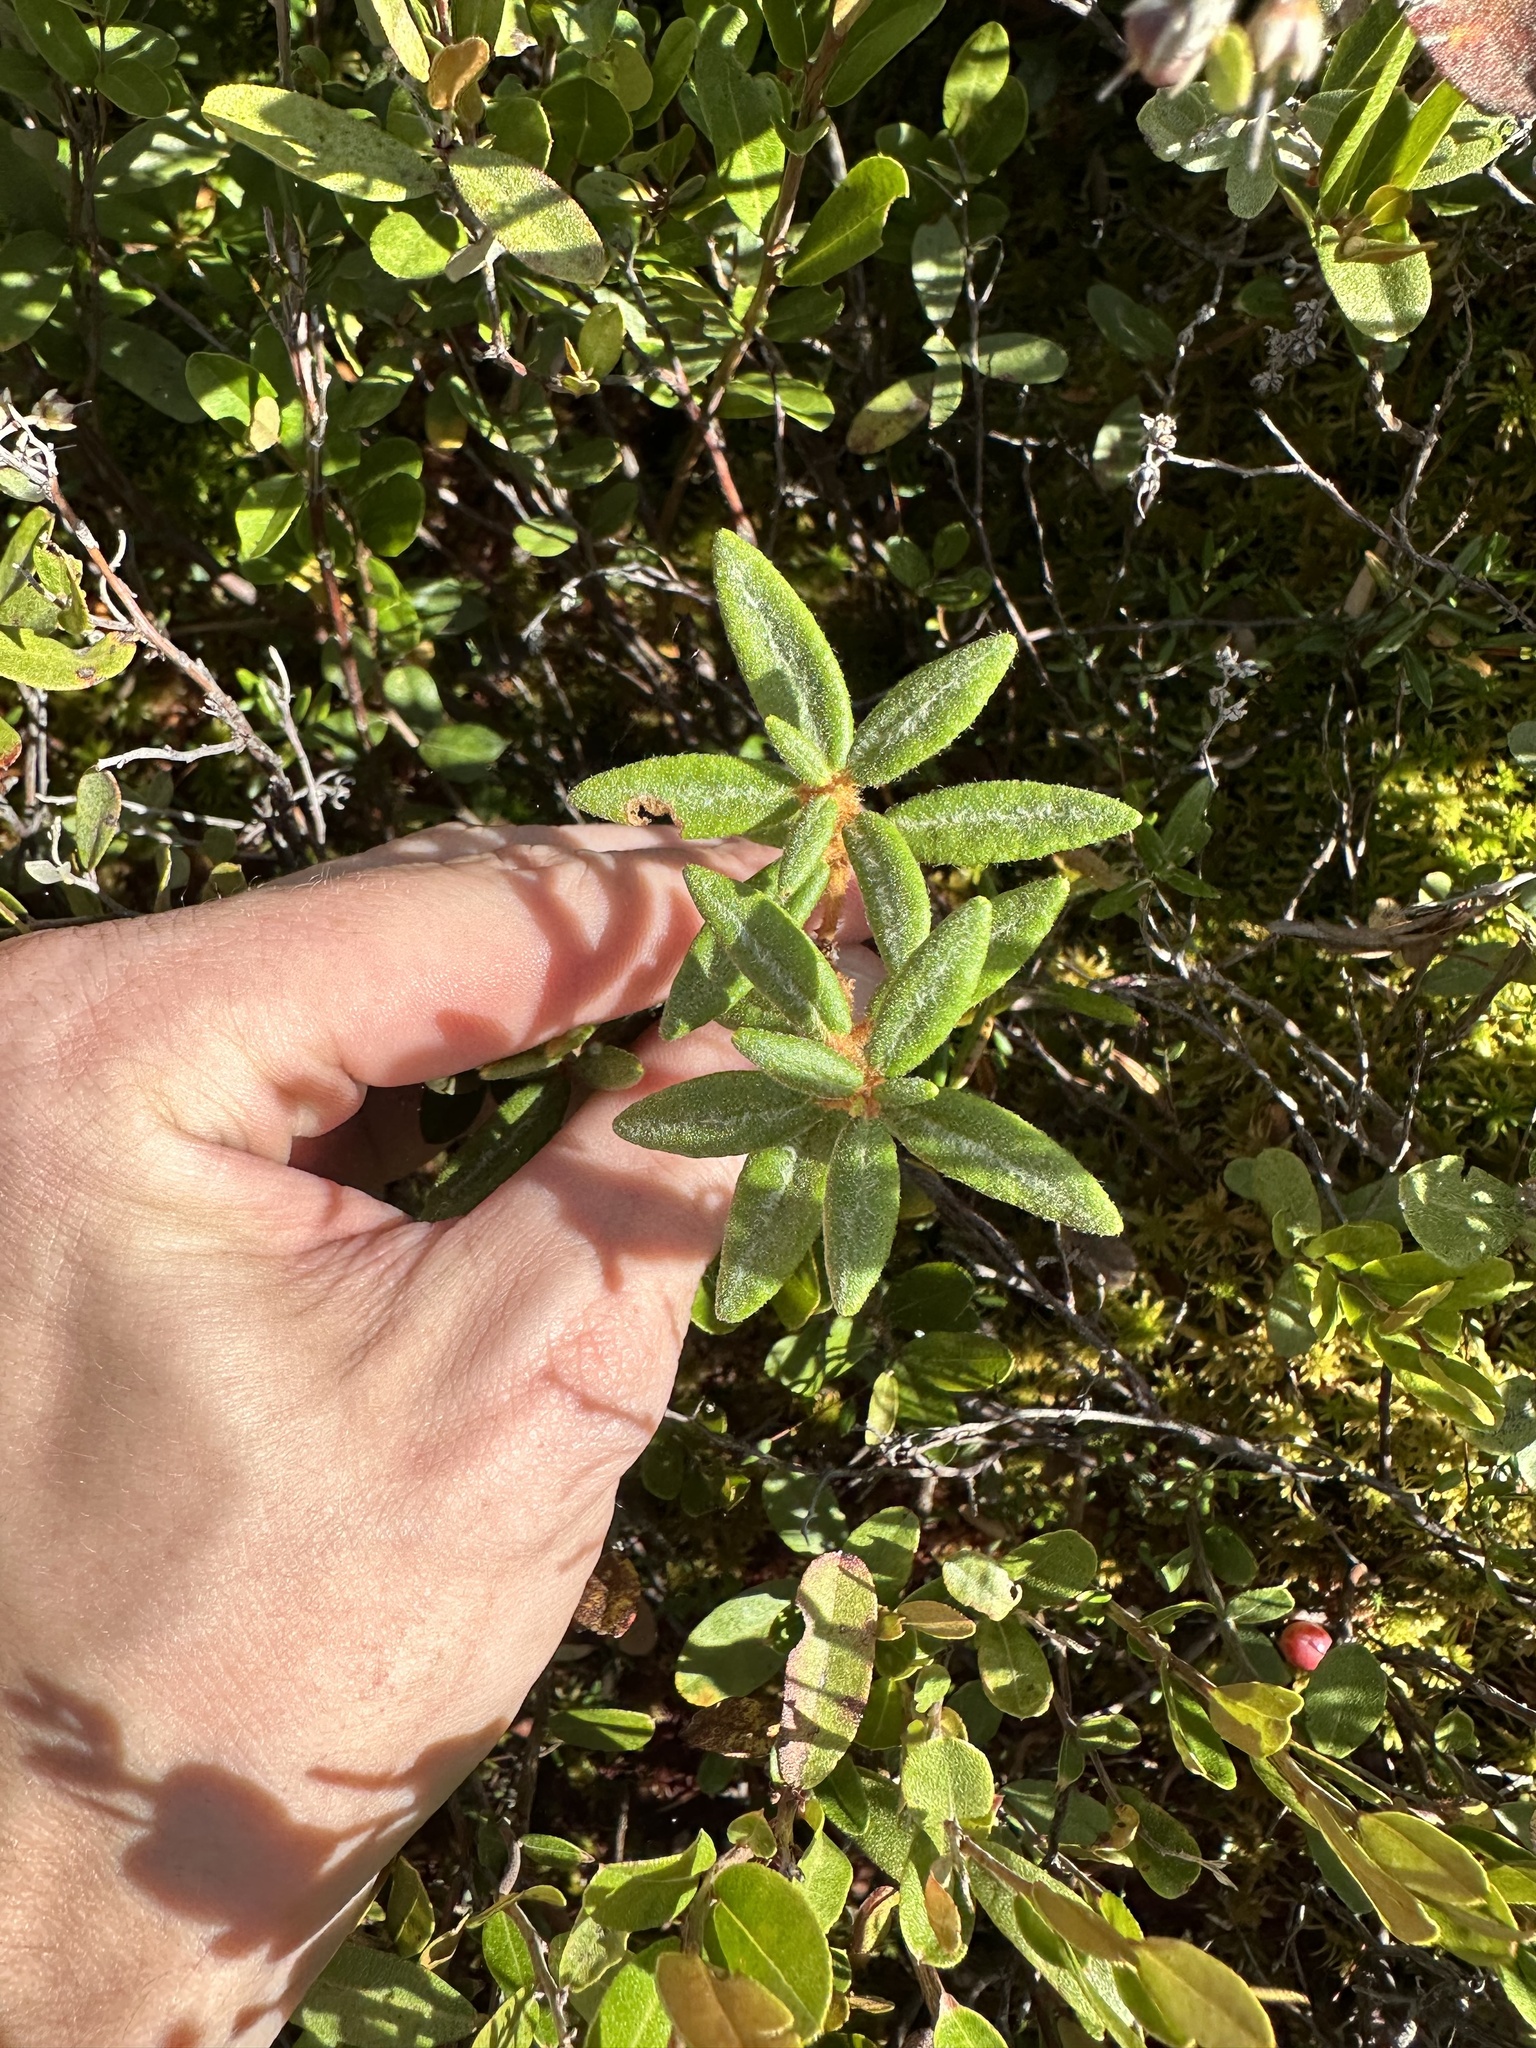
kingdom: Plantae
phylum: Tracheophyta
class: Magnoliopsida
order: Ericales
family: Ericaceae
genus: Rhododendron
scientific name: Rhododendron groenlandicum
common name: Bog labrador tea
